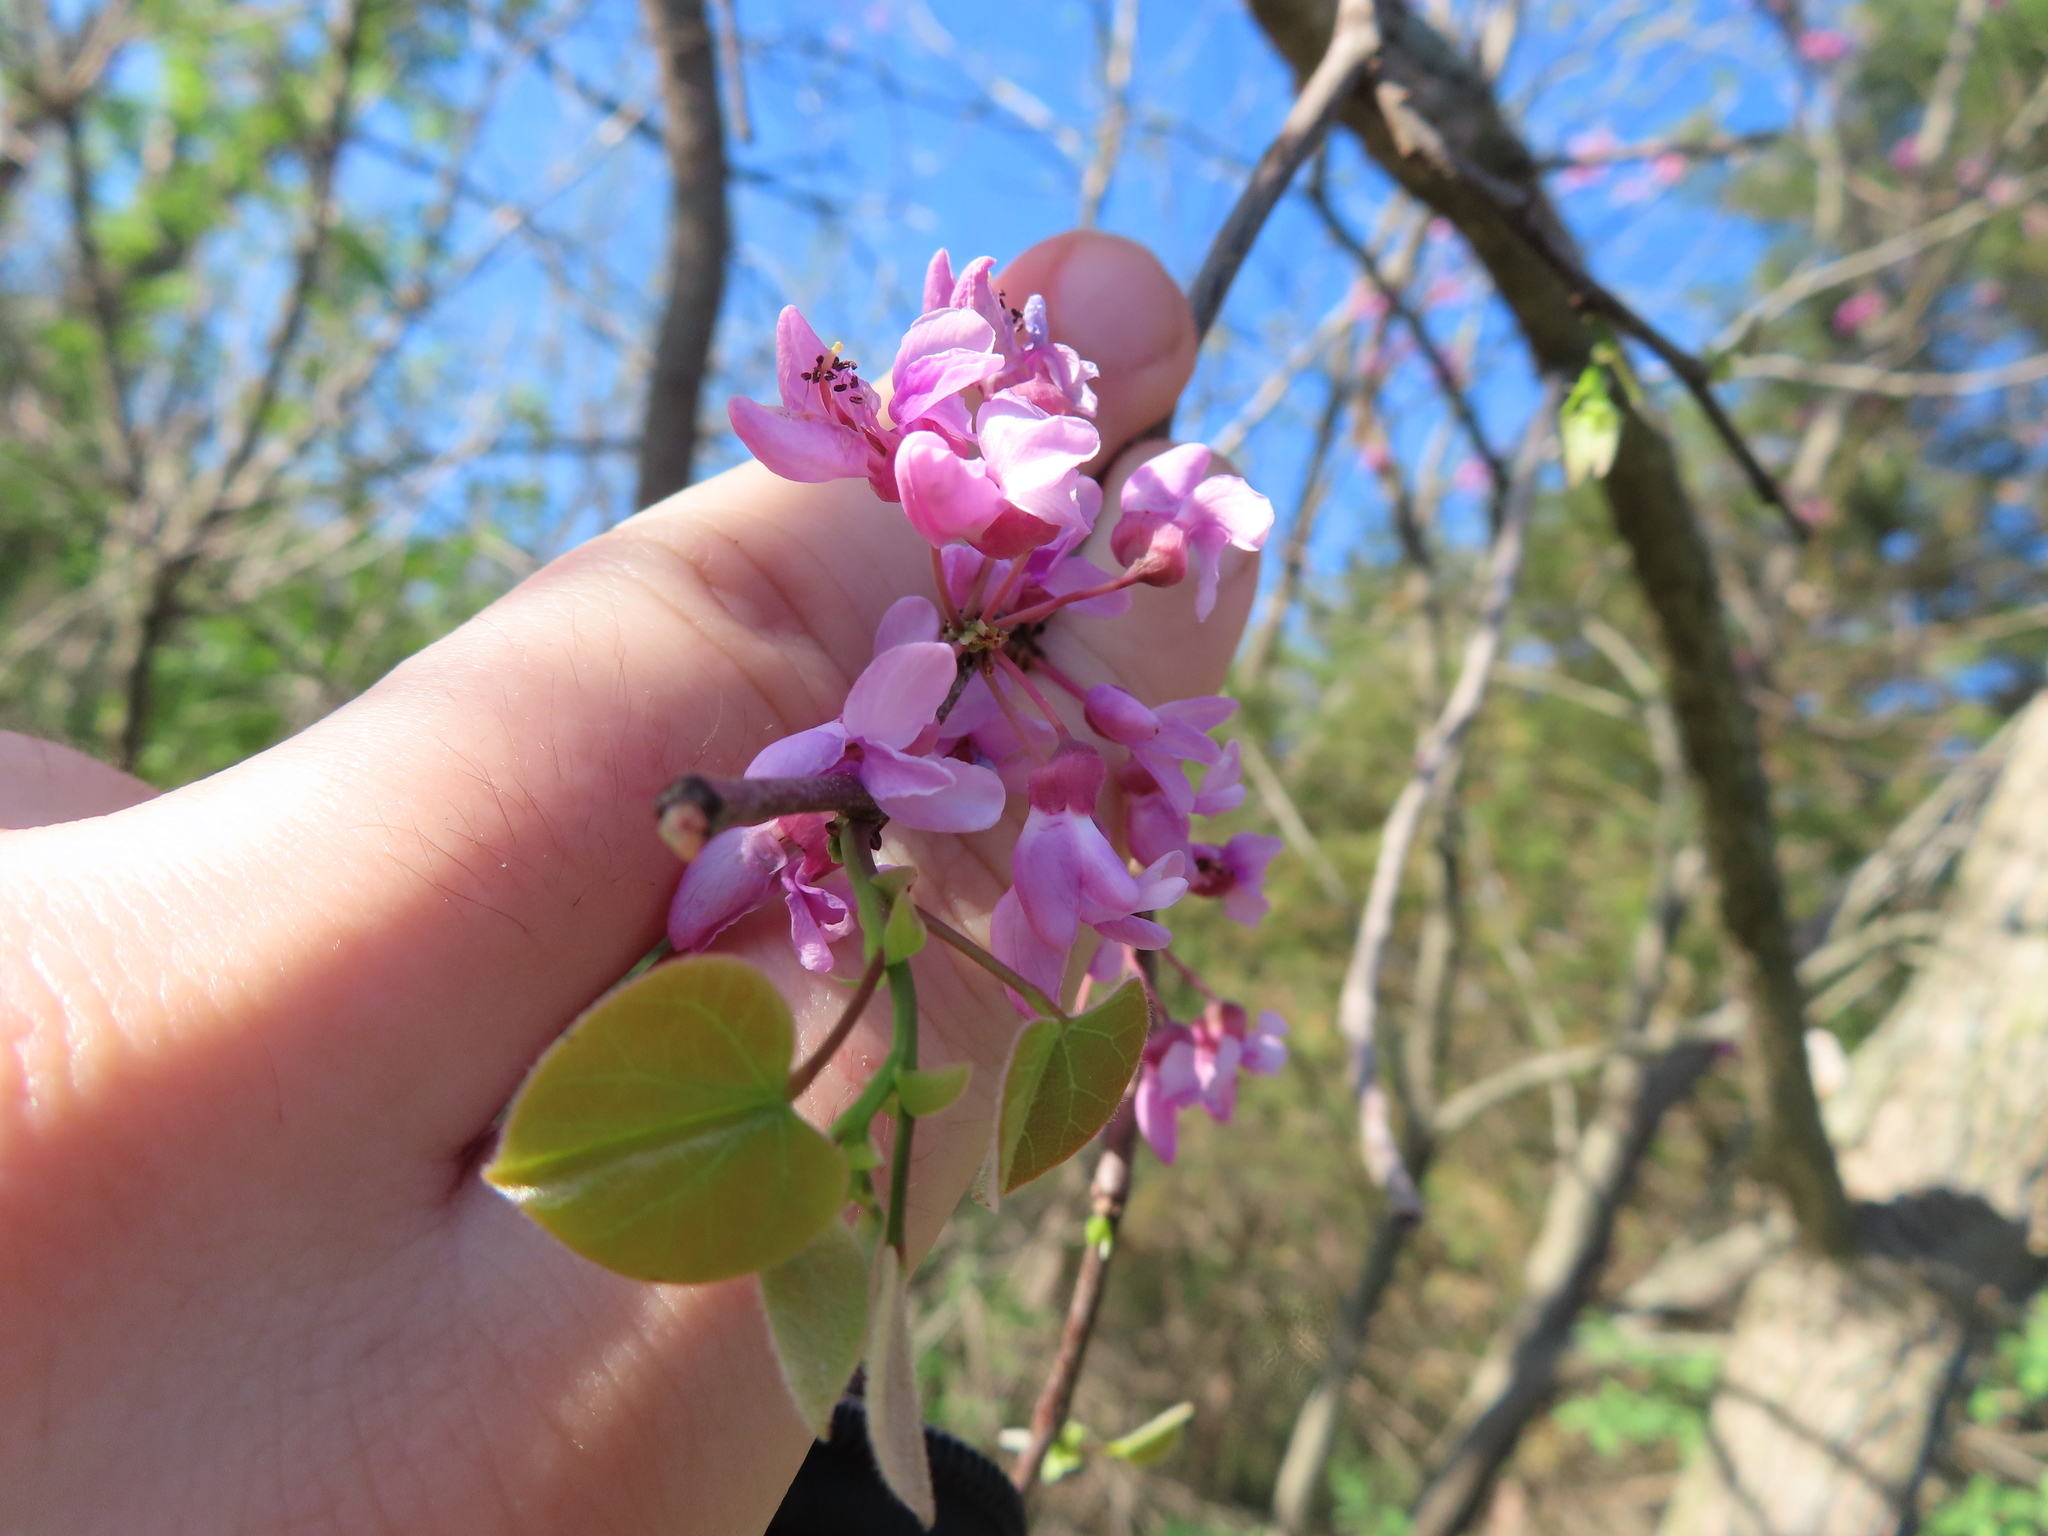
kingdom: Plantae
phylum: Tracheophyta
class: Magnoliopsida
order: Fabales
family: Fabaceae
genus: Cercis
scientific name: Cercis canadensis
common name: Eastern redbud
